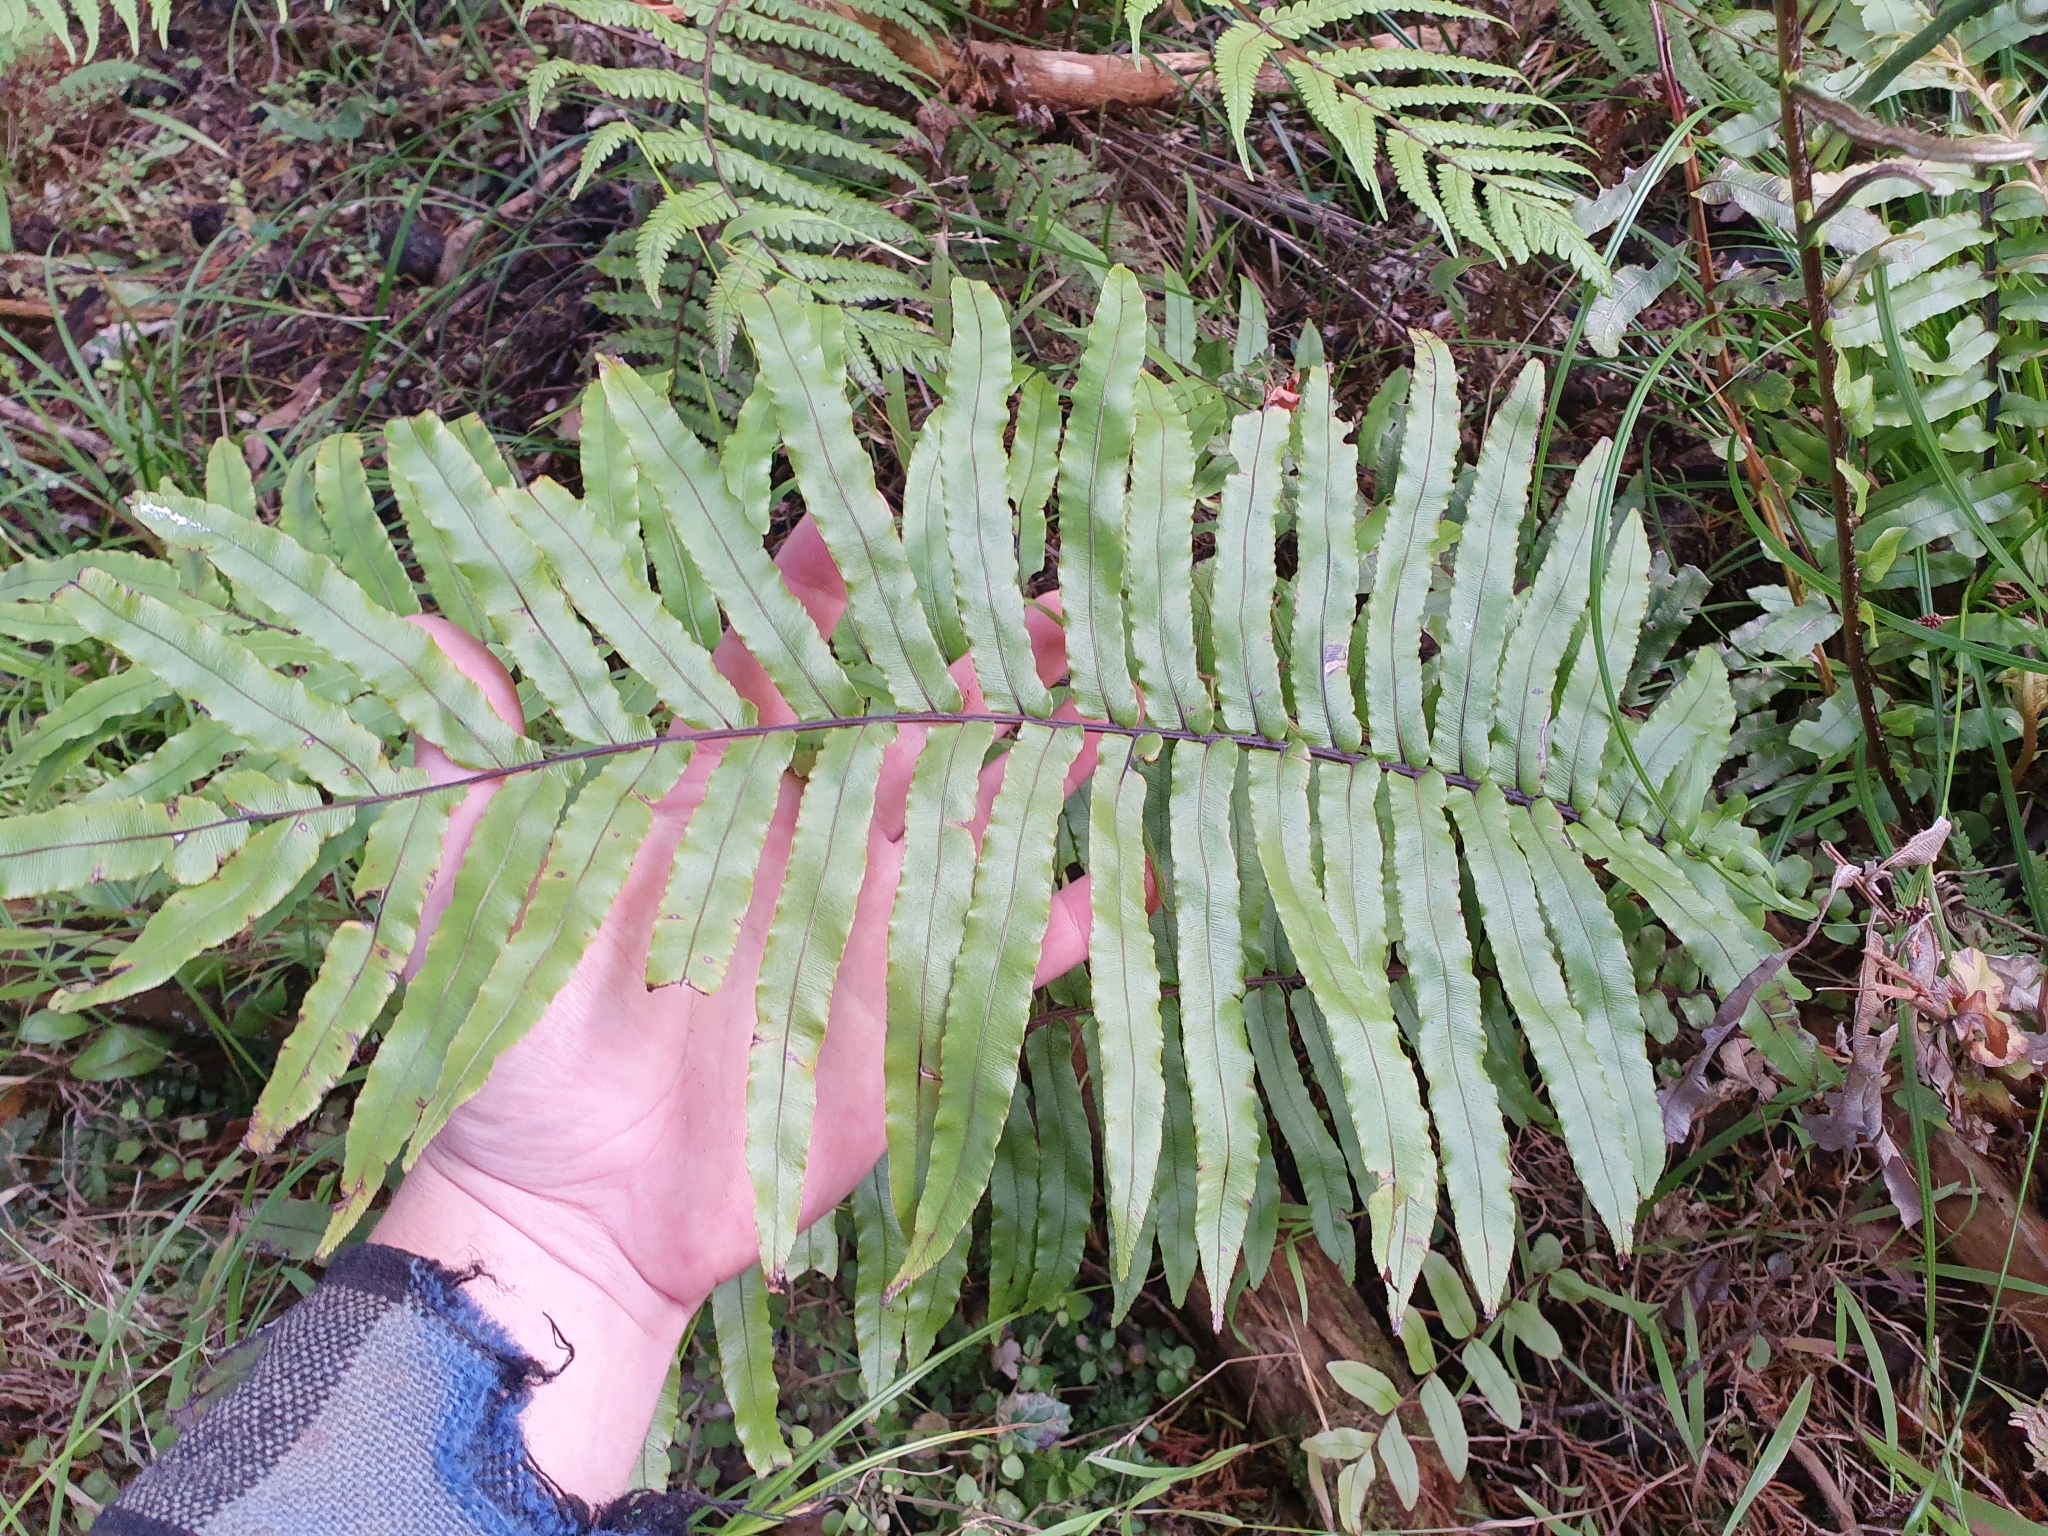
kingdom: Plantae
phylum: Tracheophyta
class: Polypodiopsida
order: Polypodiales
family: Blechnaceae
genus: Parablechnum
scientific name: Parablechnum minus
